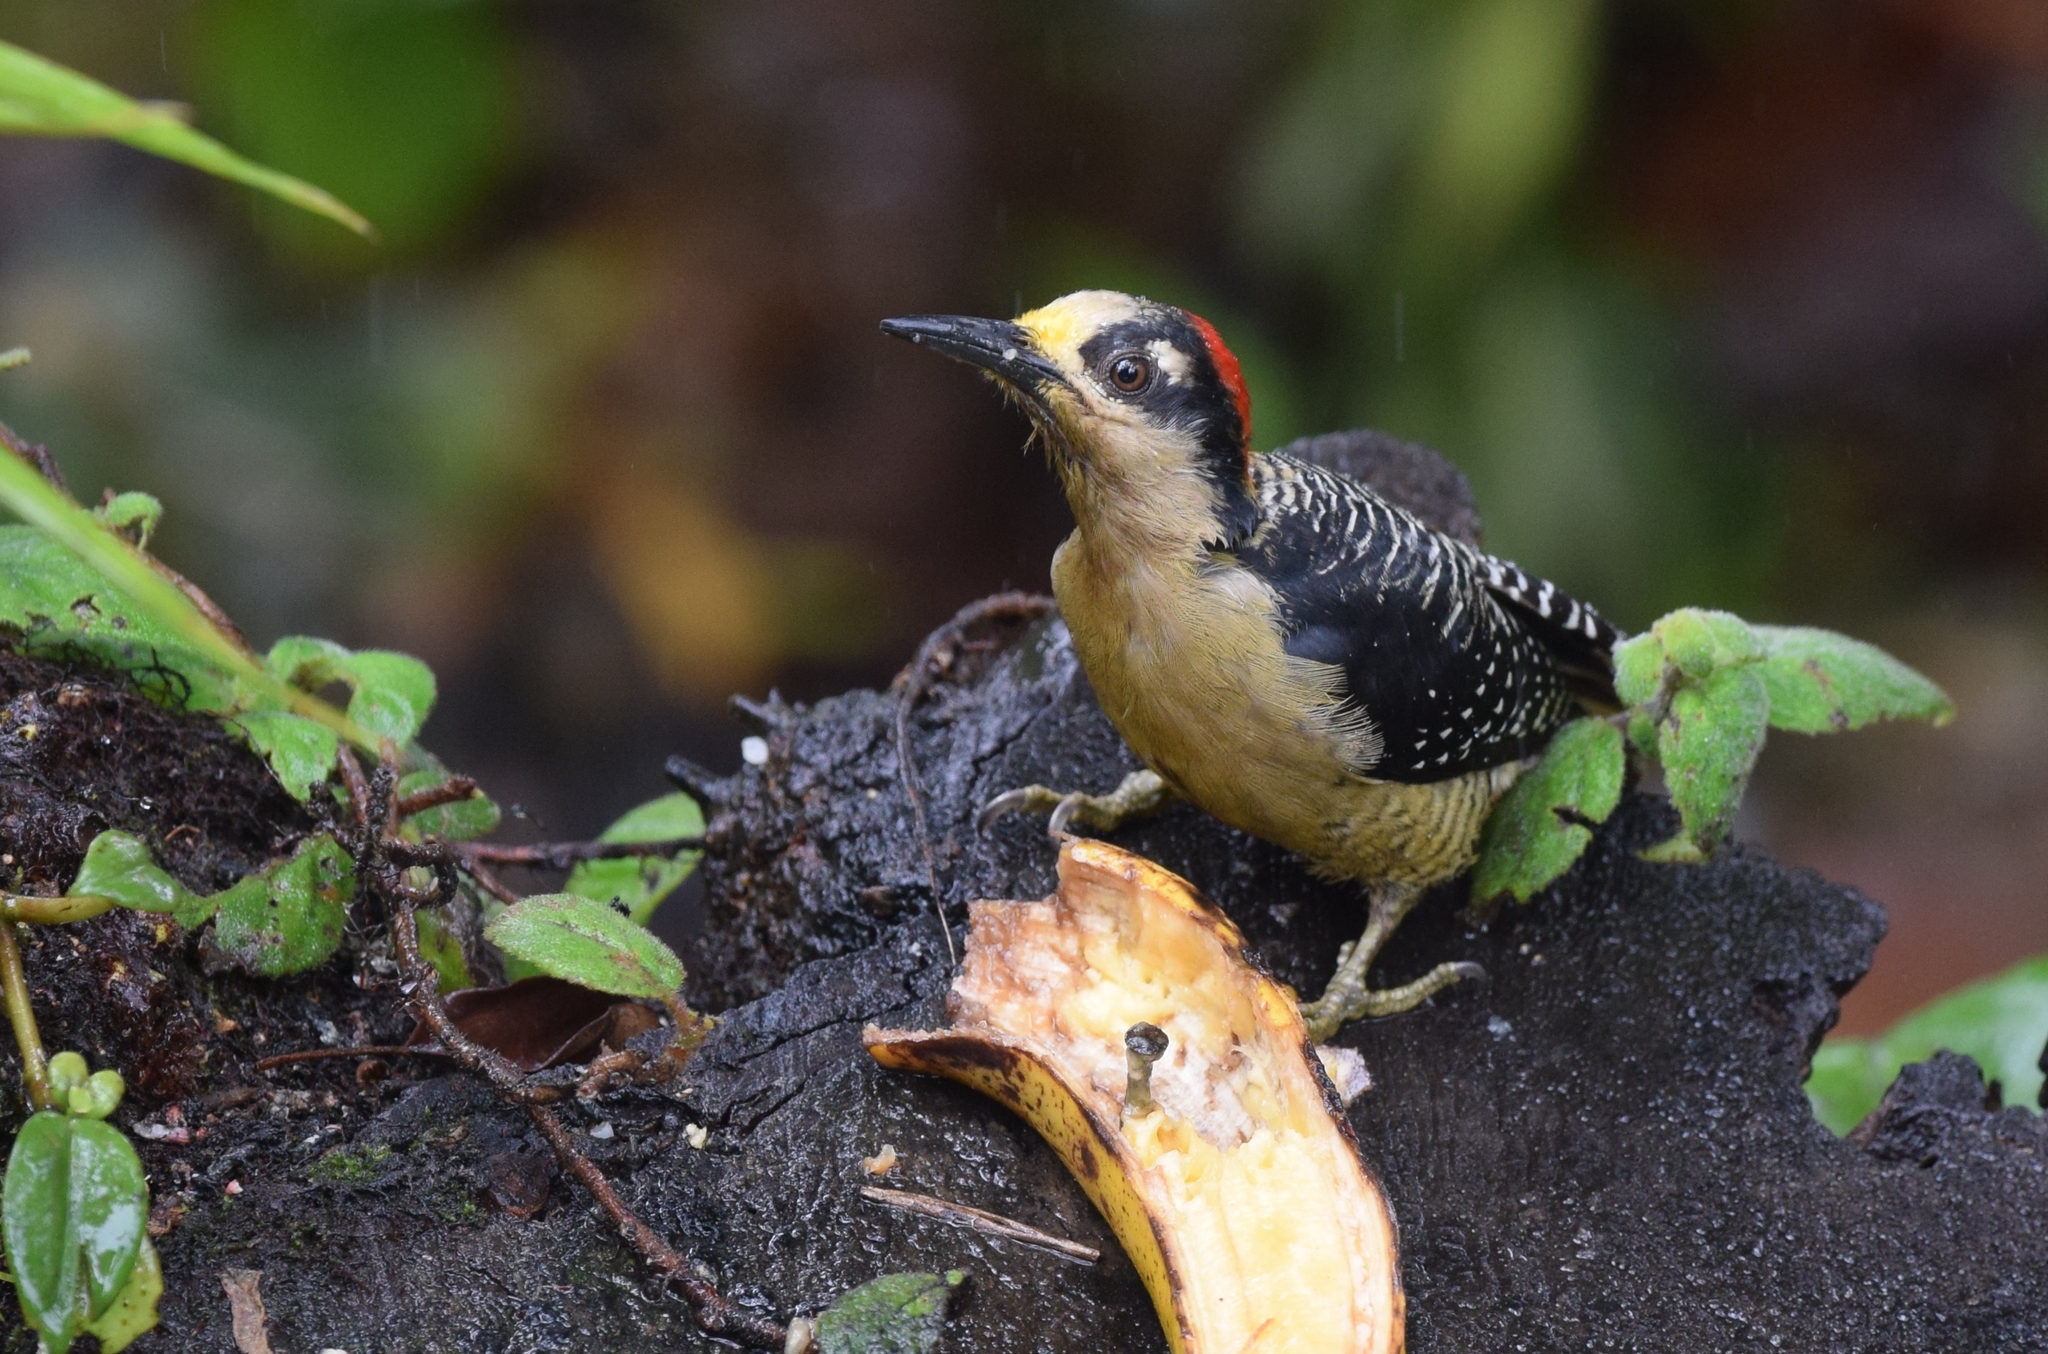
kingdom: Animalia
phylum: Chordata
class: Aves
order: Piciformes
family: Picidae
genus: Melanerpes
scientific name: Melanerpes pucherani
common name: Black-cheeked woodpecker
